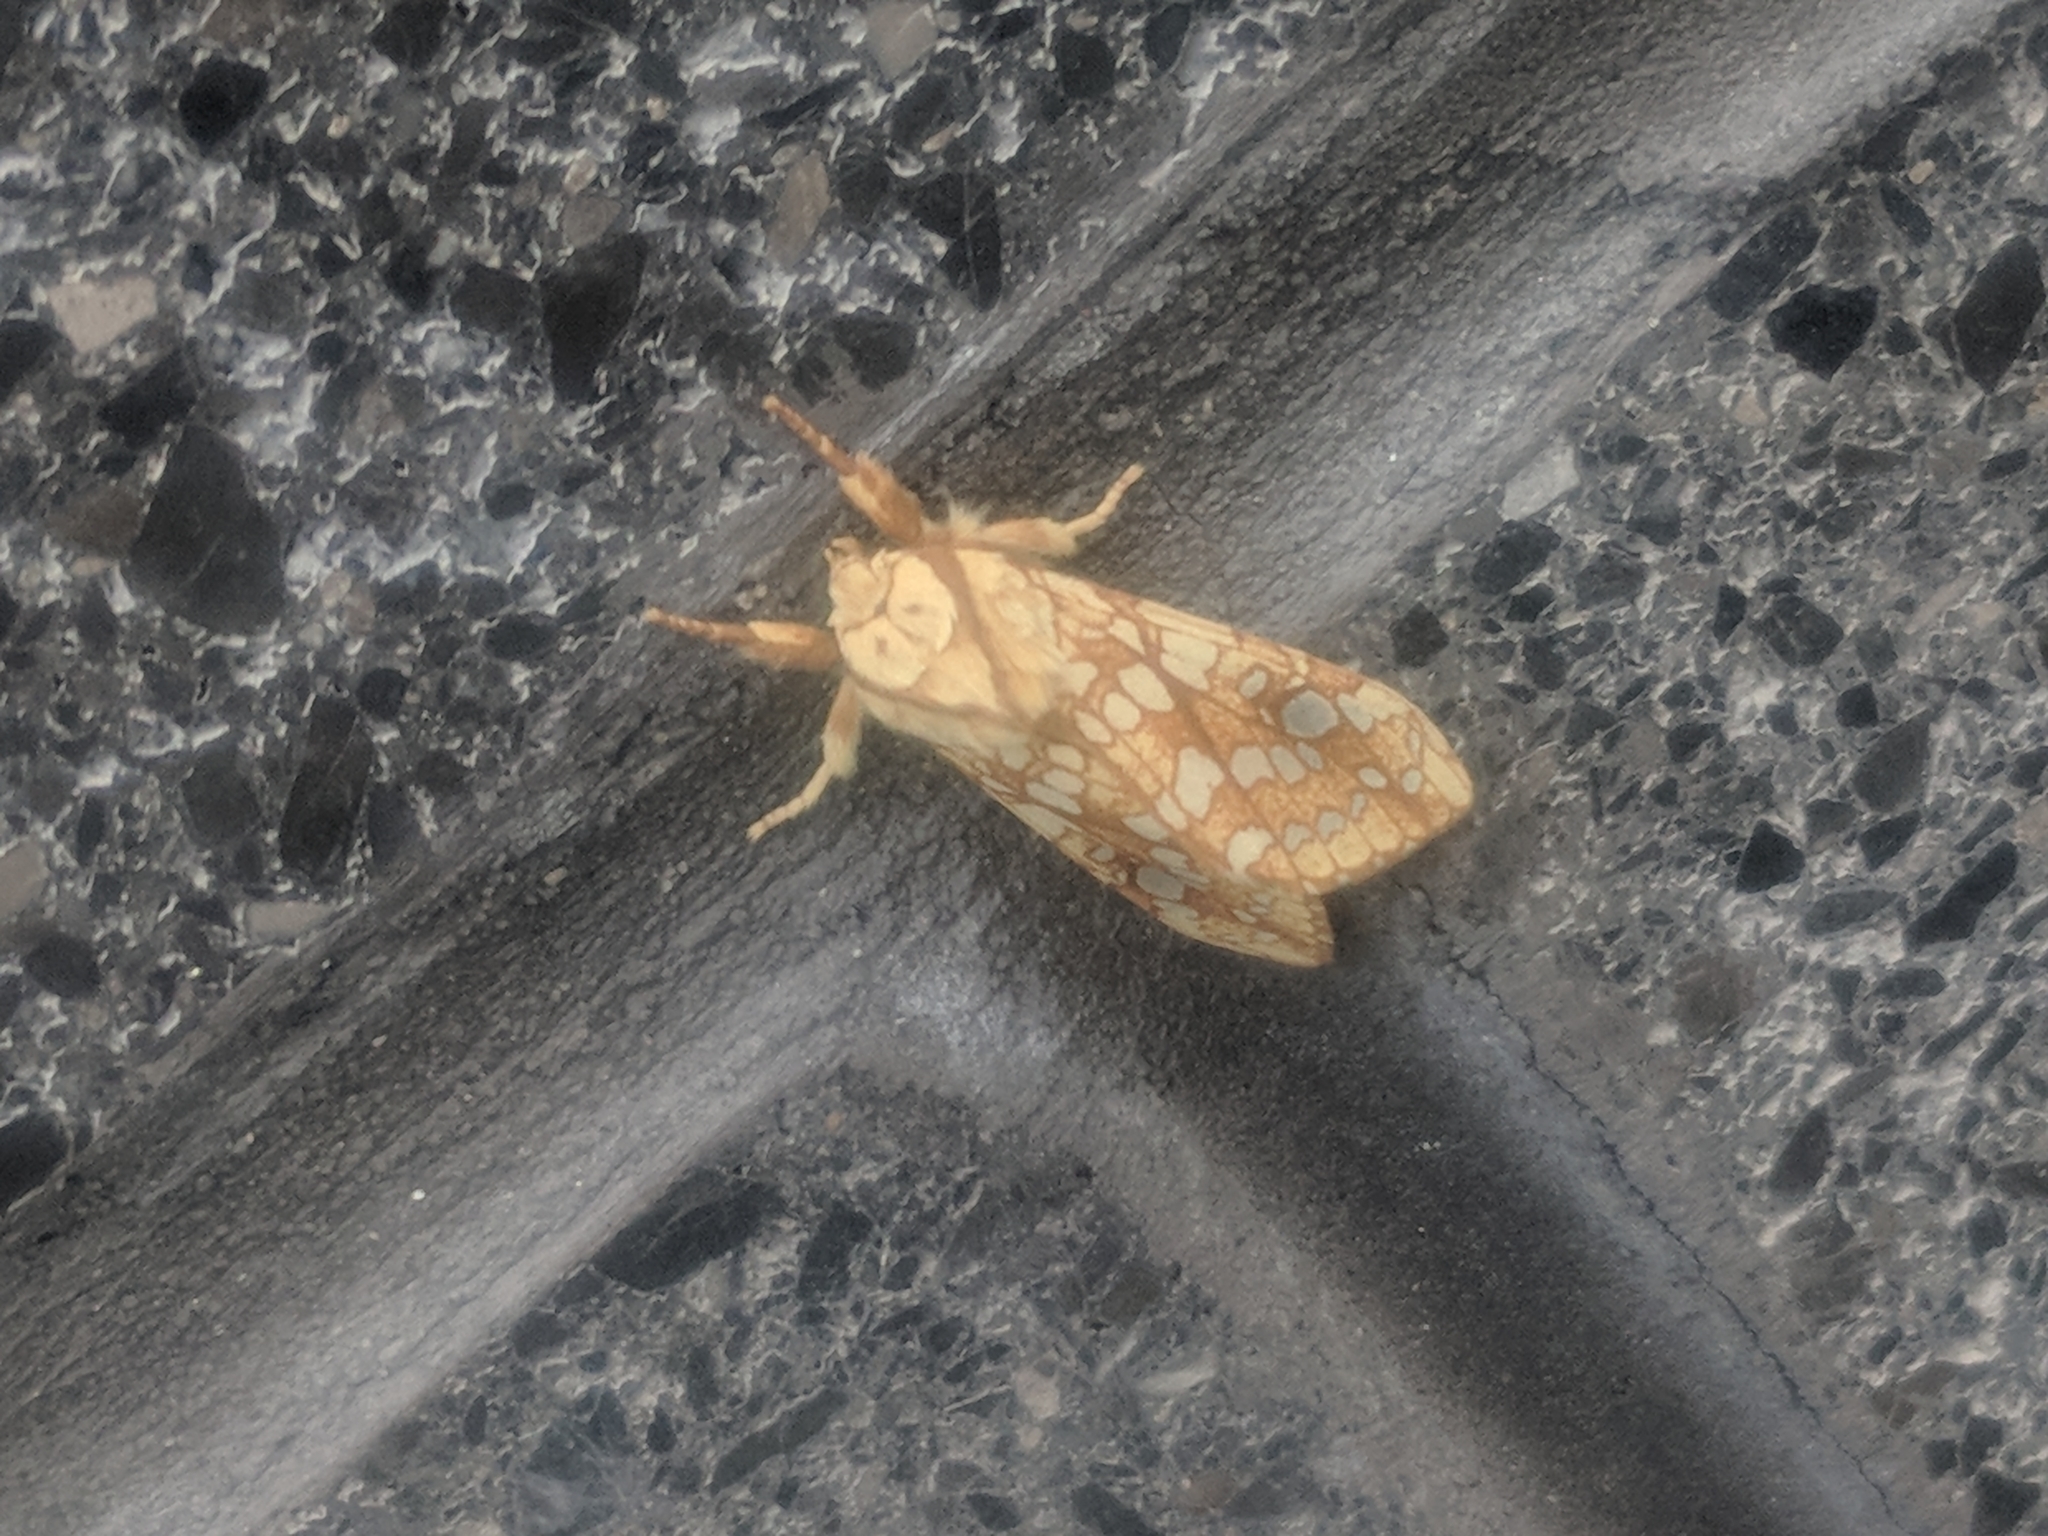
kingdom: Animalia
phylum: Arthropoda
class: Insecta
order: Lepidoptera
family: Erebidae
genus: Lophocampa
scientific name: Lophocampa caryae
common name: Hickory tussock moth
